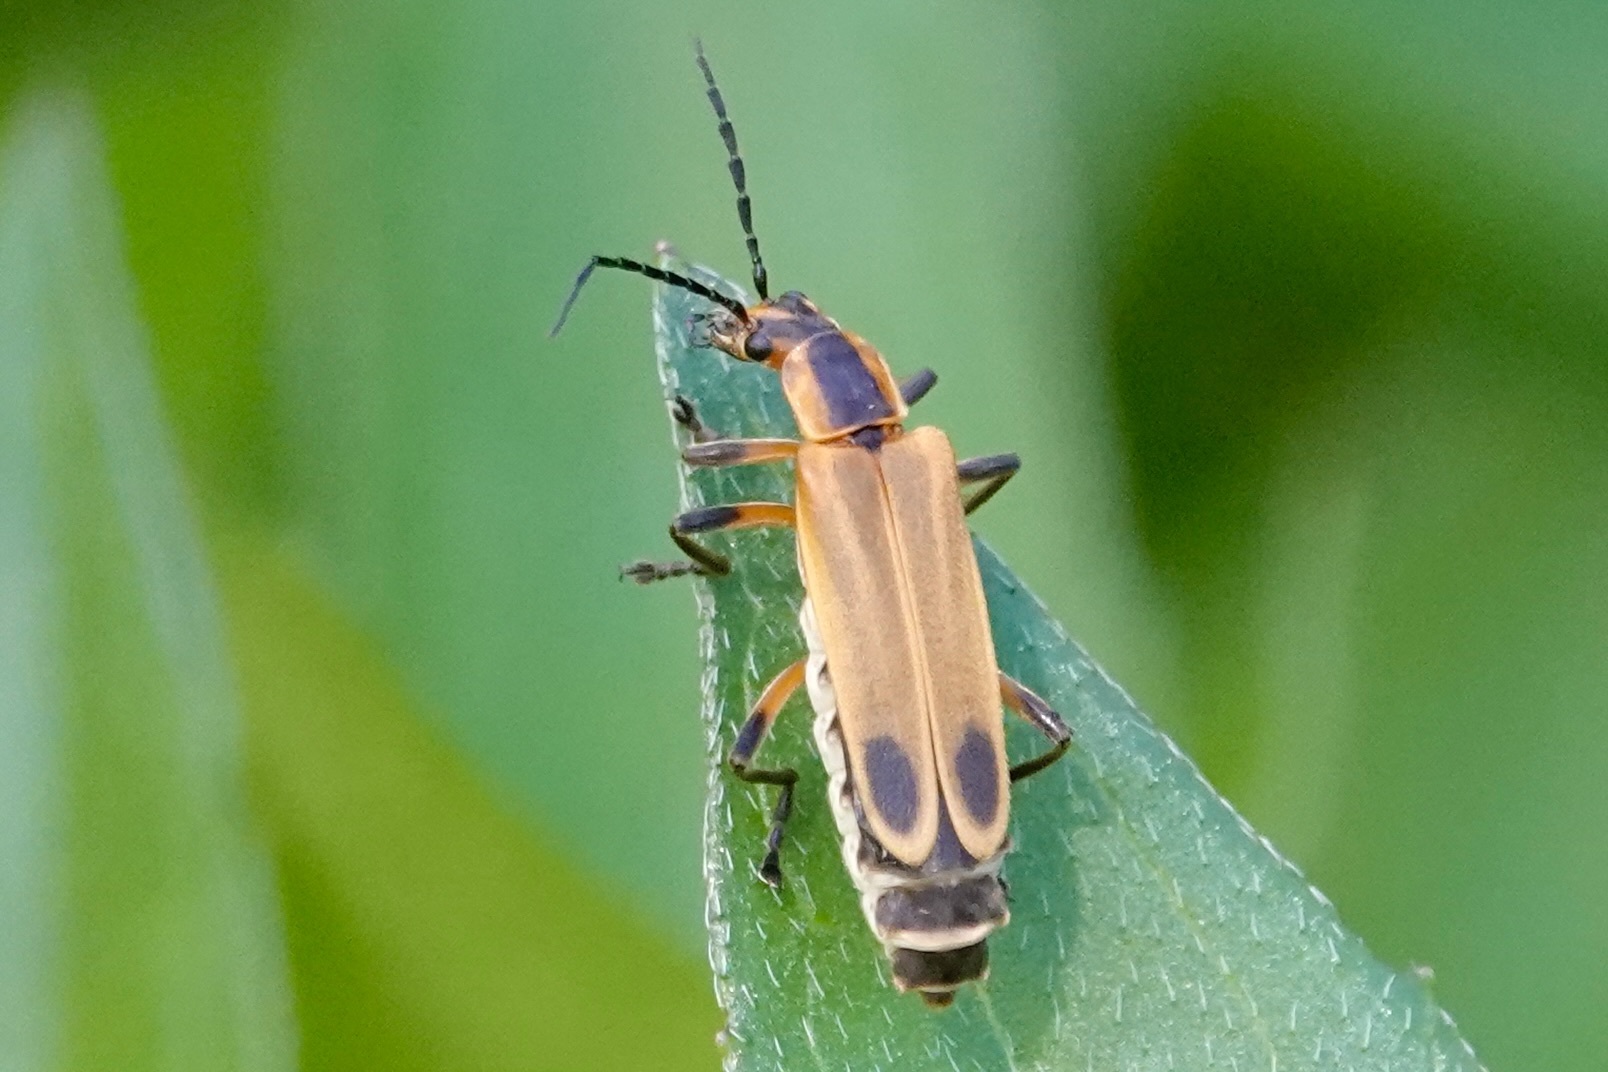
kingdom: Animalia
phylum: Arthropoda
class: Insecta
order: Coleoptera
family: Cantharidae
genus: Chauliognathus
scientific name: Chauliognathus marginatus
